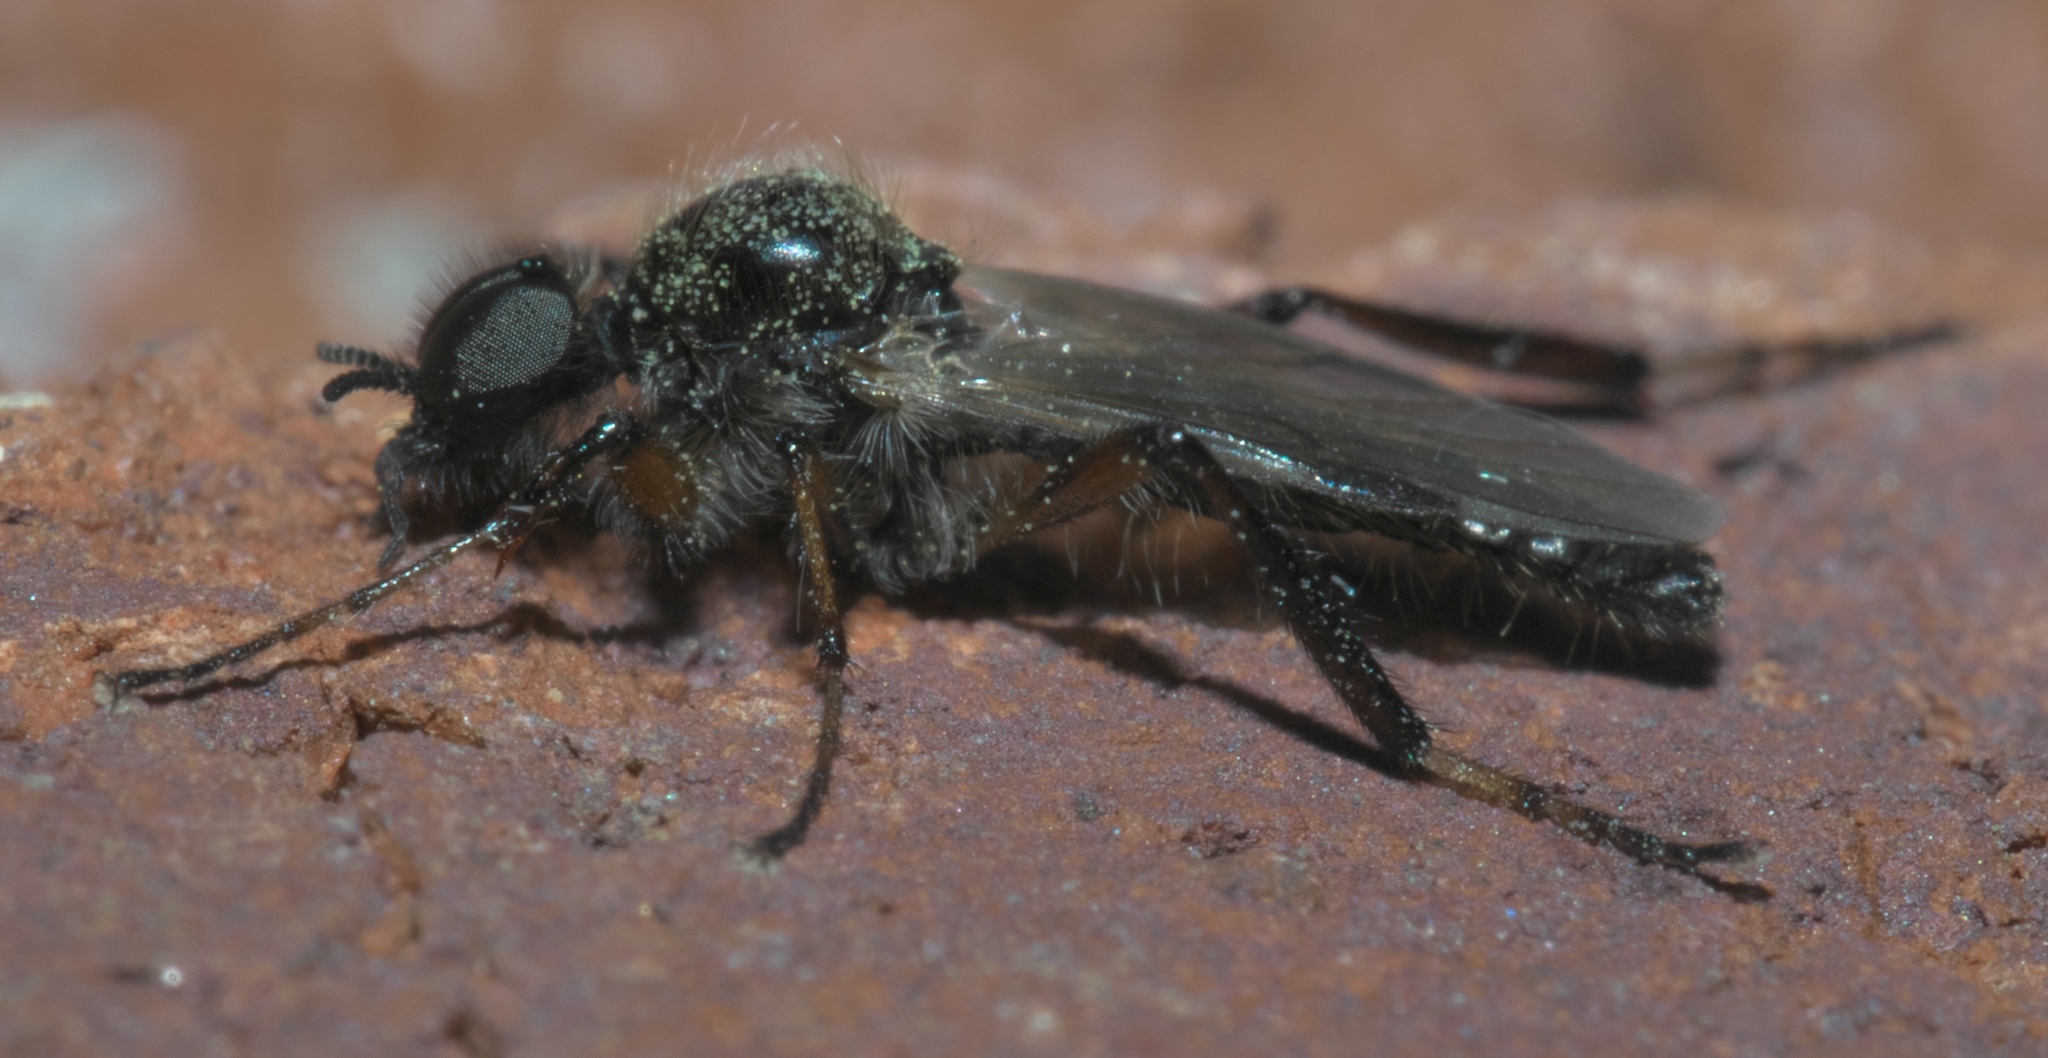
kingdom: Animalia
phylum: Arthropoda
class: Insecta
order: Diptera
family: Bibionidae
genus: Bibio
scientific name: Bibio articulatus
